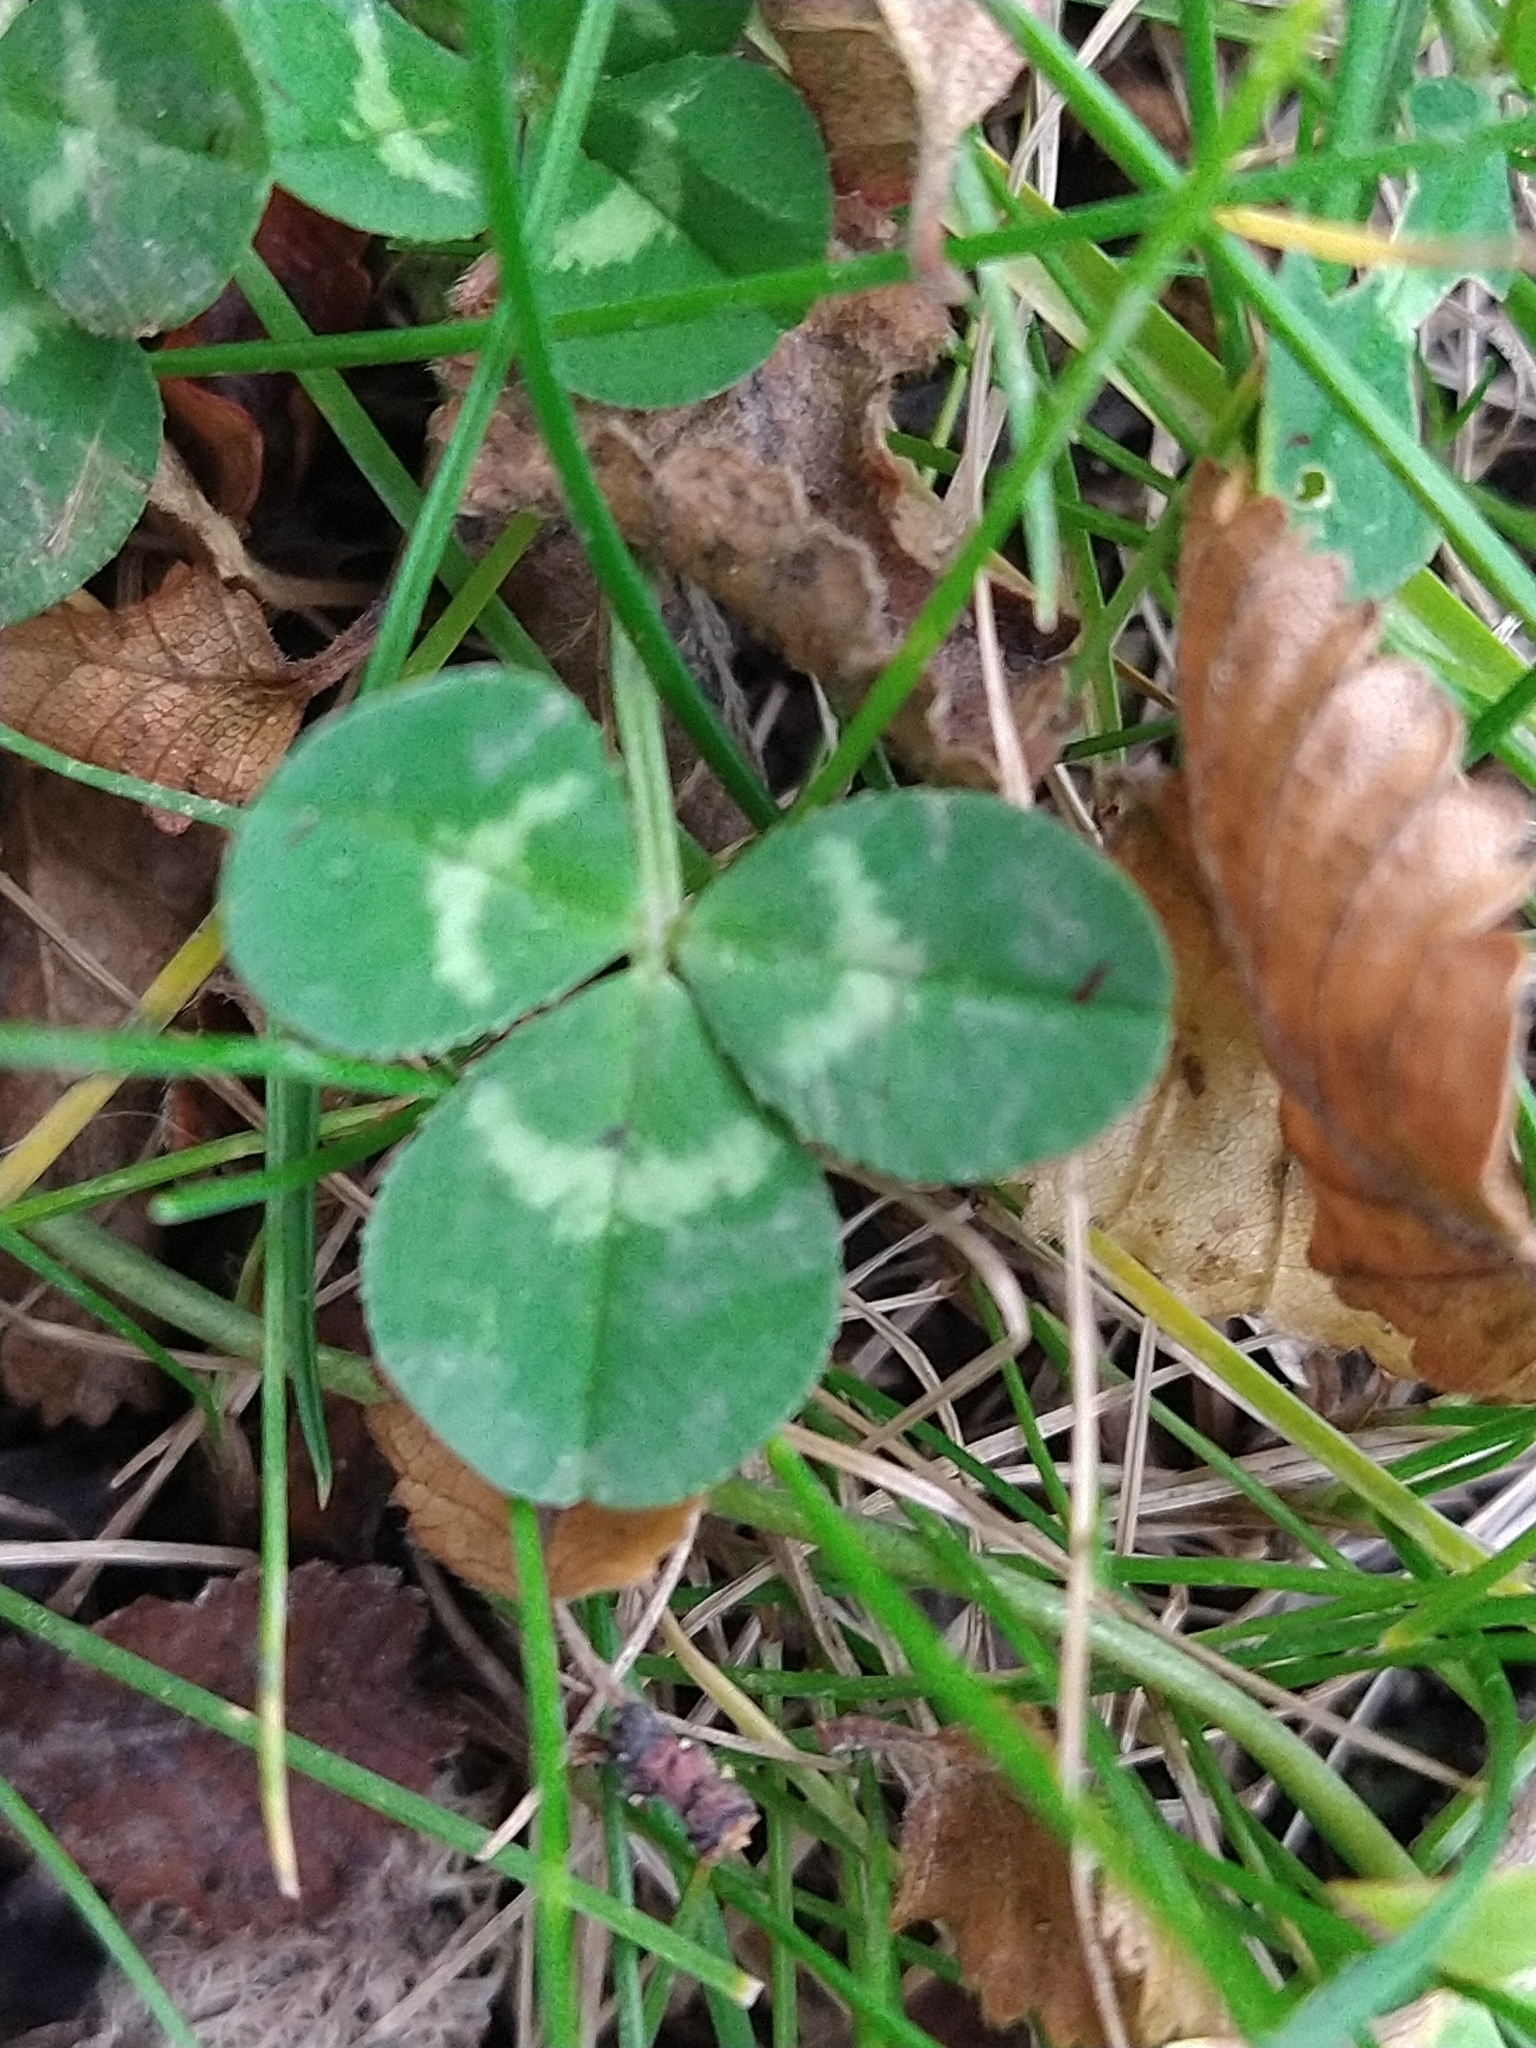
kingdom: Plantae
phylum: Tracheophyta
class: Magnoliopsida
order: Fabales
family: Fabaceae
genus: Trifolium
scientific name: Trifolium repens
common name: White clover
